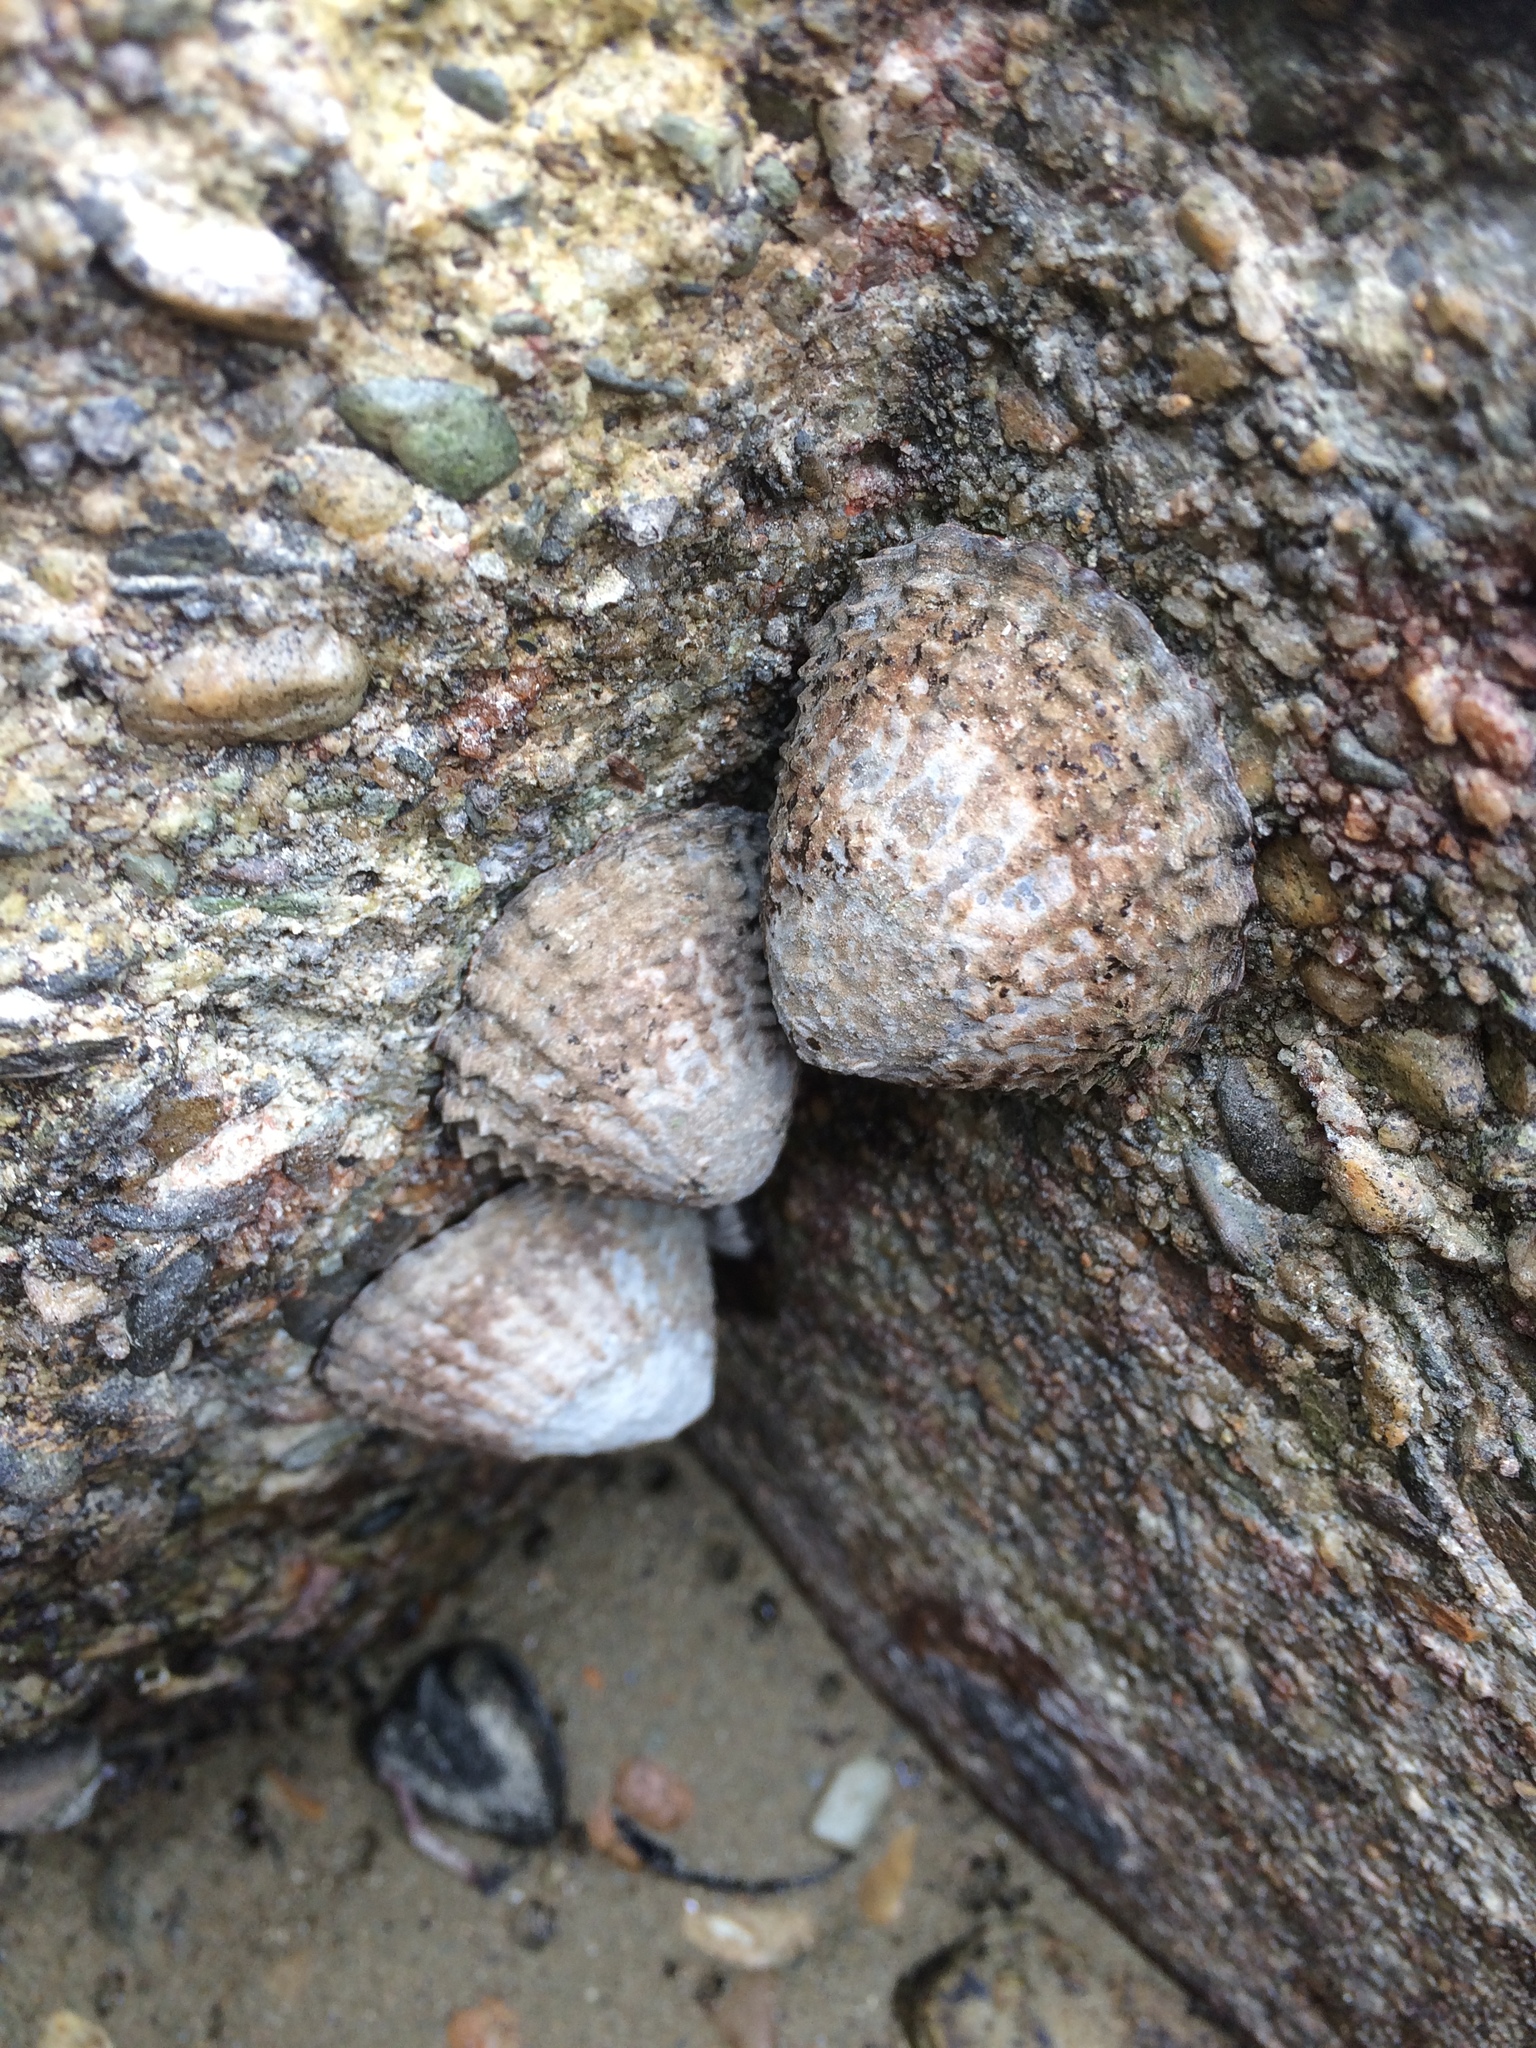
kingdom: Animalia
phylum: Mollusca
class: Gastropoda
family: Nacellidae
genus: Cellana
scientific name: Cellana denticulata
